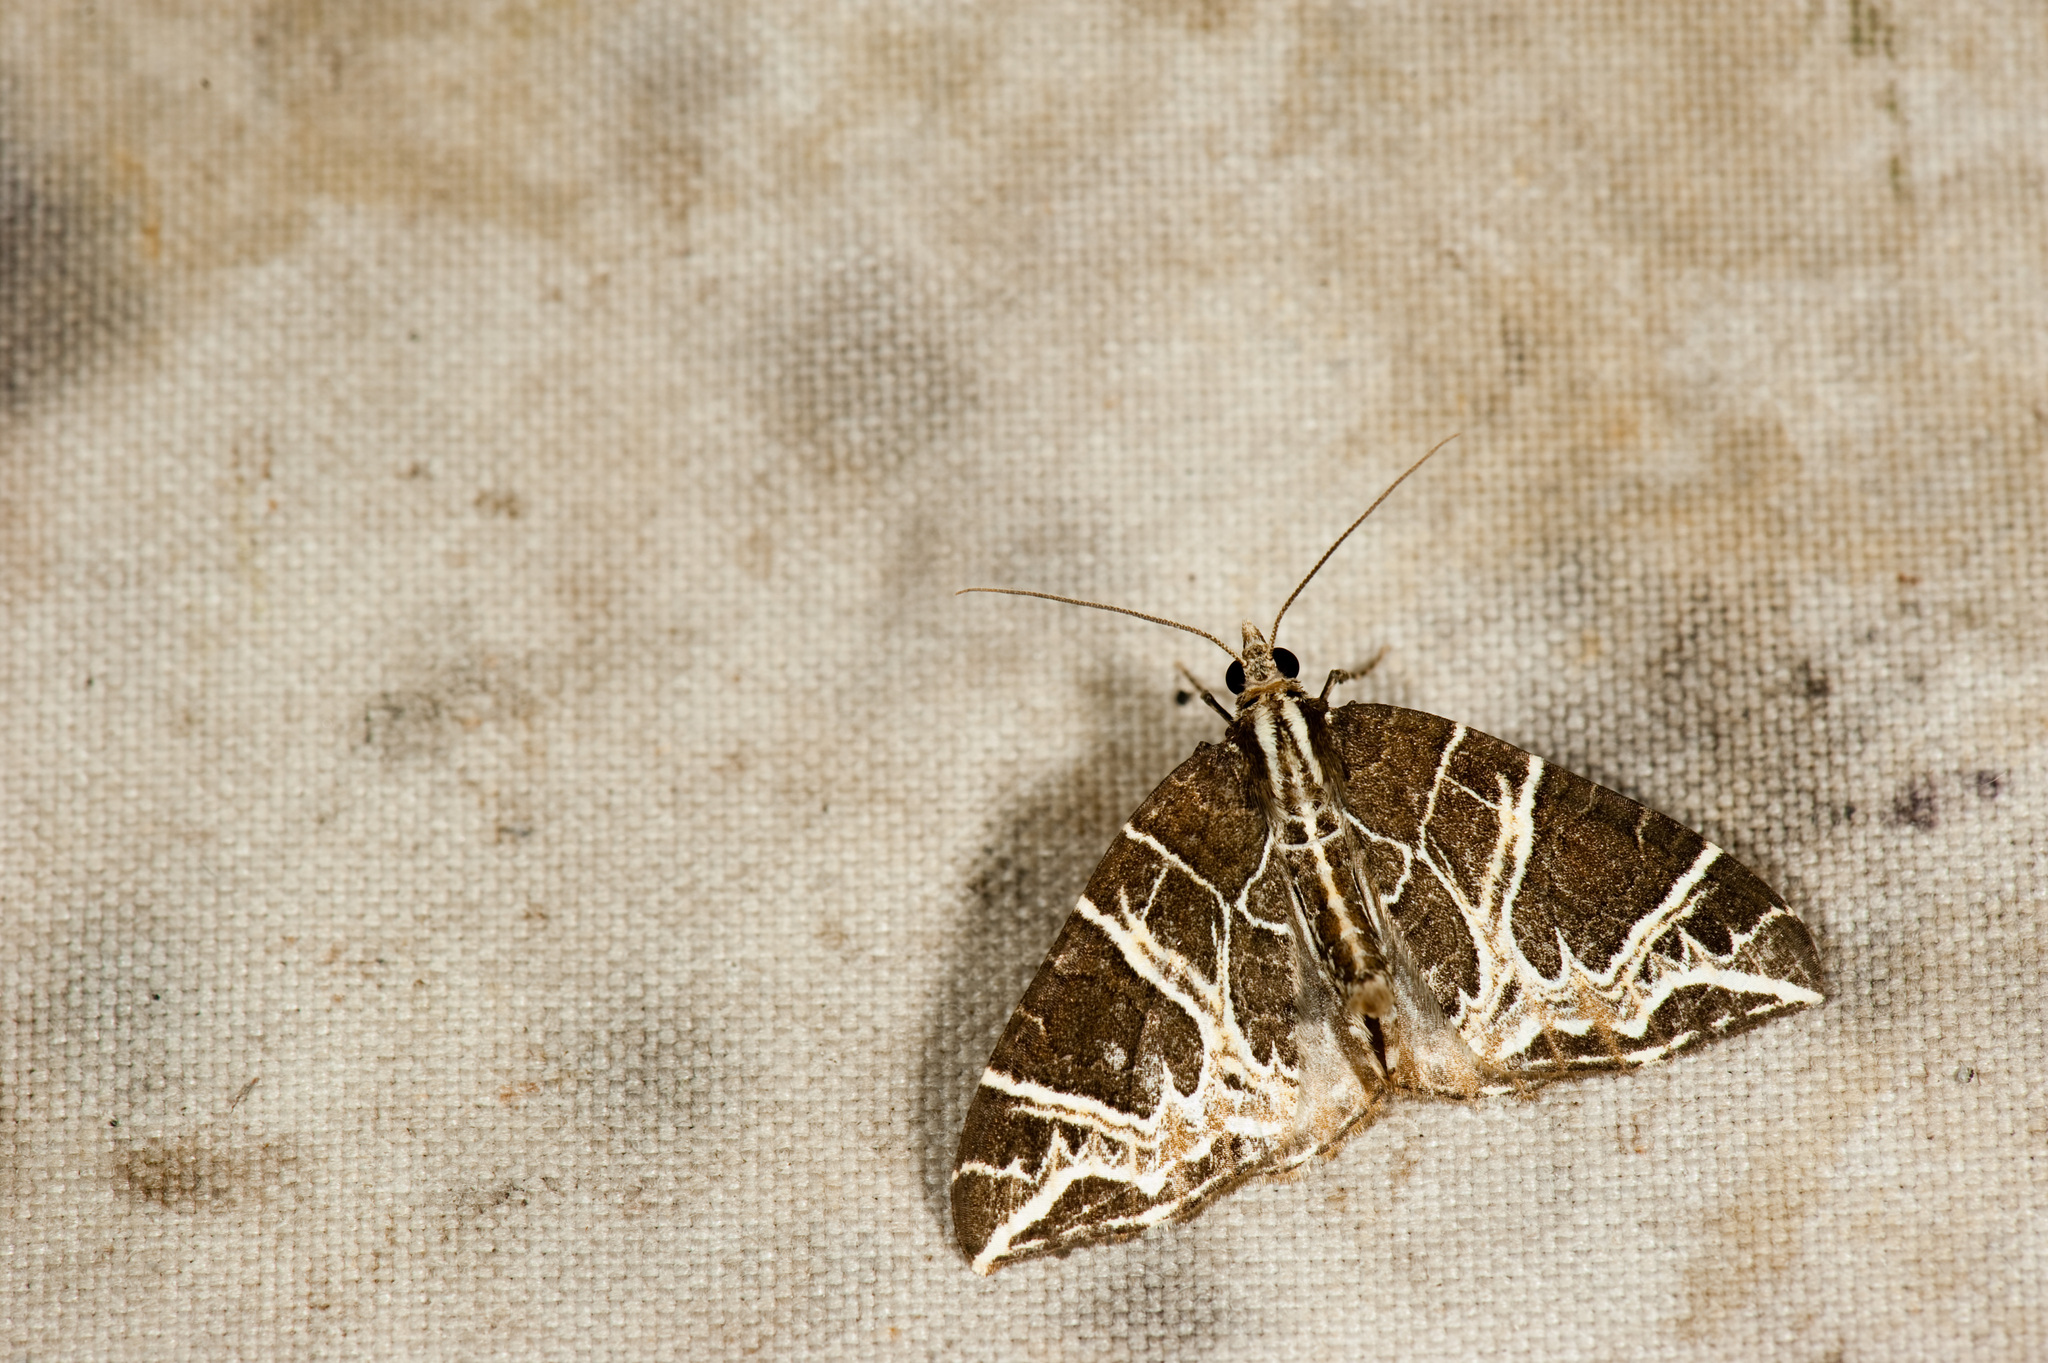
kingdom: Animalia
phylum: Arthropoda
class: Insecta
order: Lepidoptera
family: Geometridae
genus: Ecliptopera
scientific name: Ecliptopera delecta
